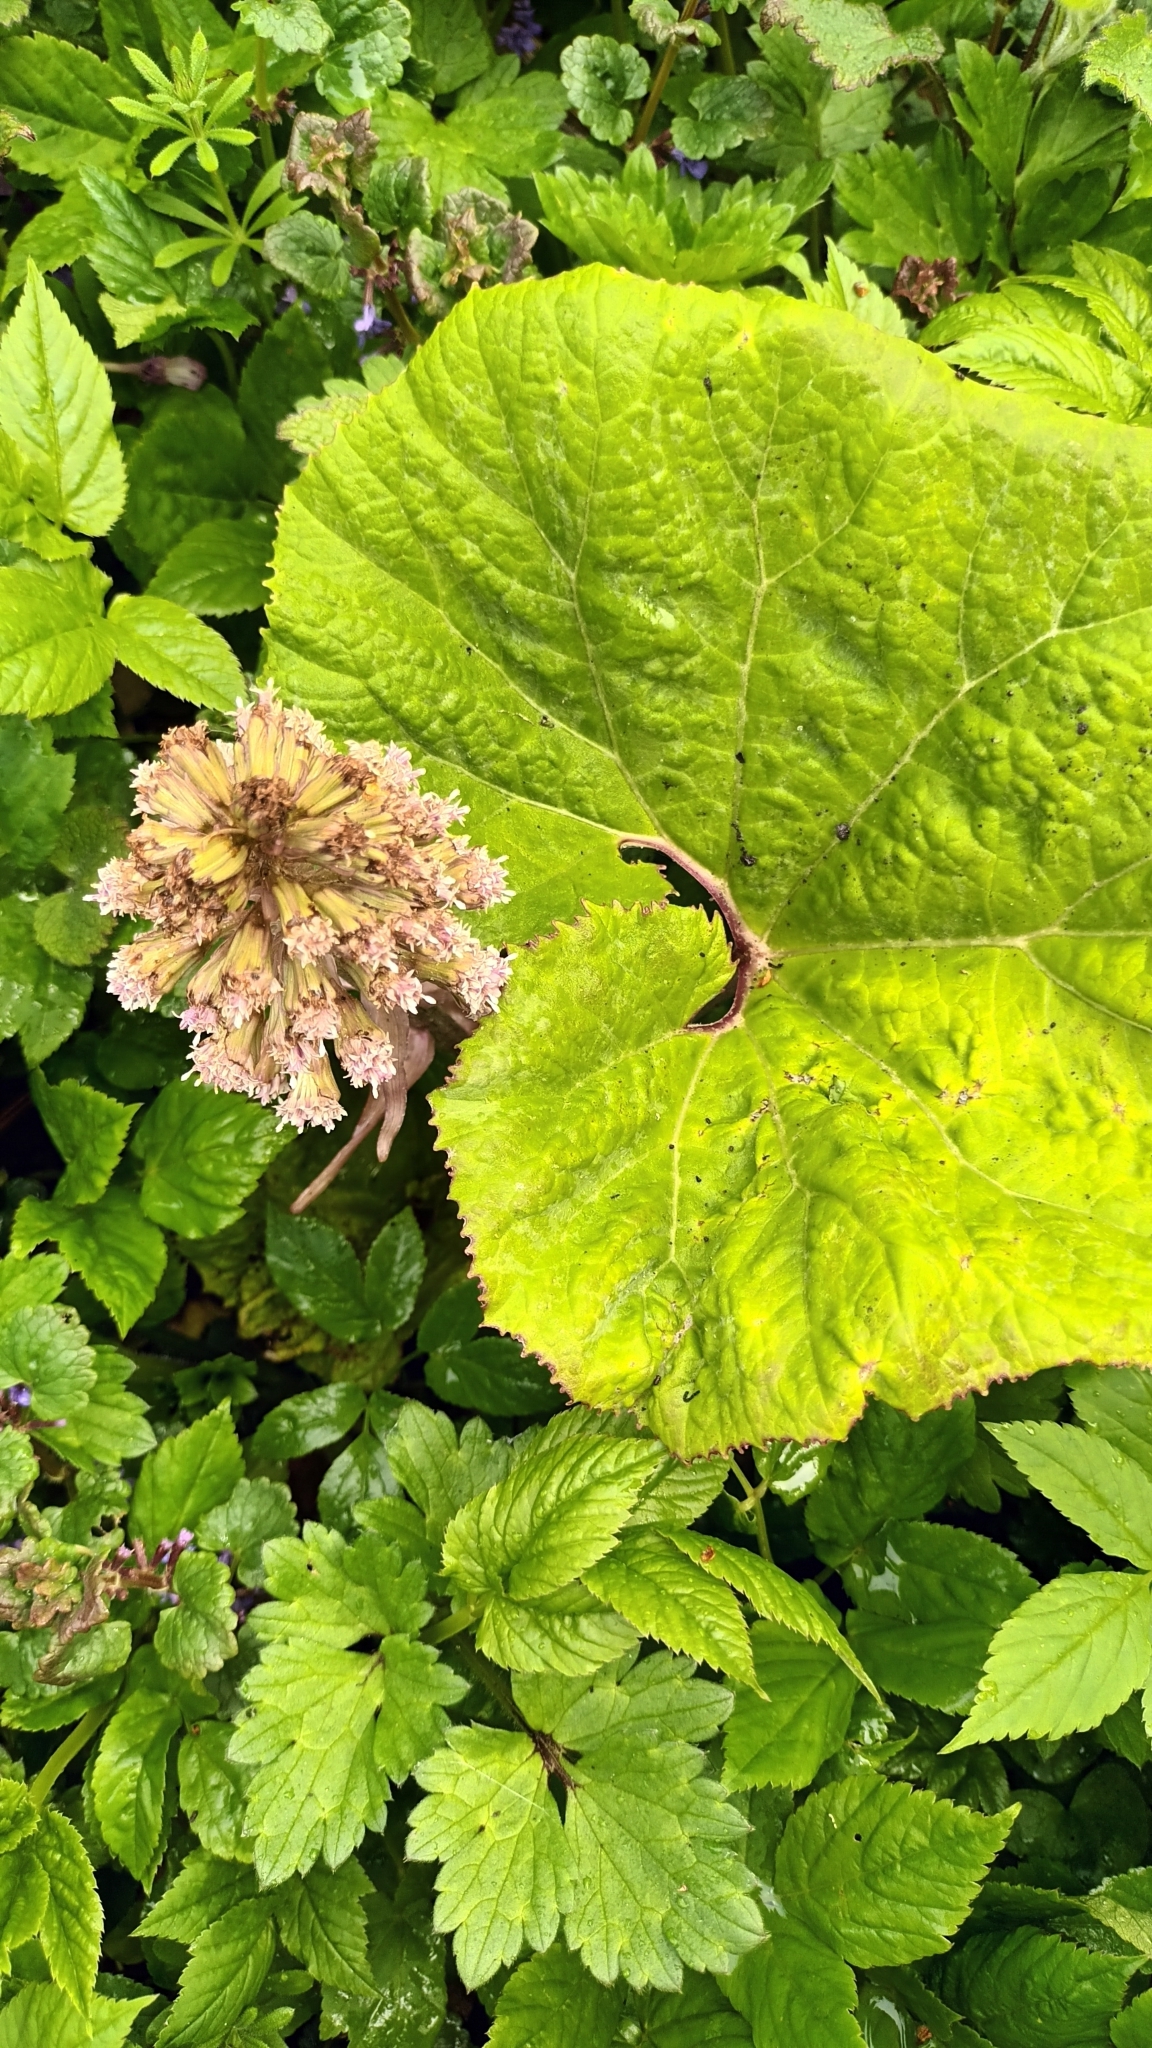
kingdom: Plantae
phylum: Tracheophyta
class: Magnoliopsida
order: Asterales
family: Asteraceae
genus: Petasites
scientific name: Petasites hybridus
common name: Butterbur
